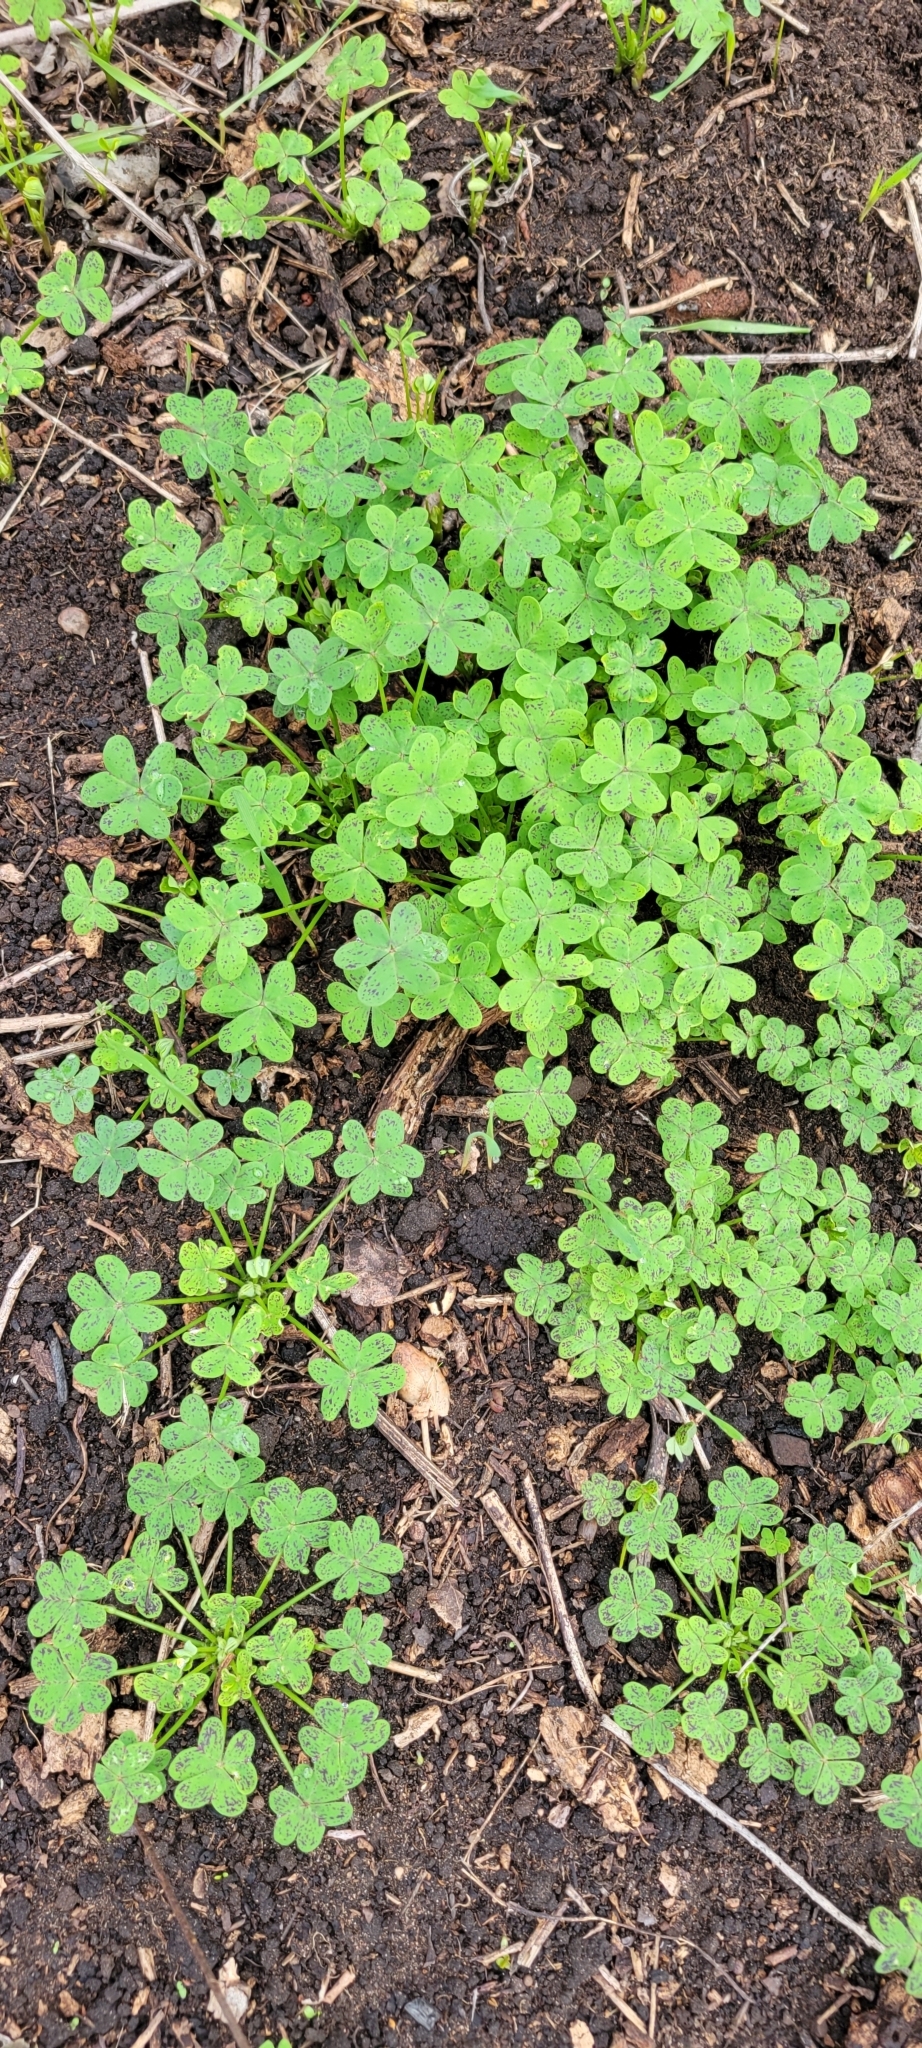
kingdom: Plantae
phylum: Tracheophyta
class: Magnoliopsida
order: Oxalidales
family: Oxalidaceae
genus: Oxalis
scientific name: Oxalis pes-caprae
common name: Bermuda-buttercup
